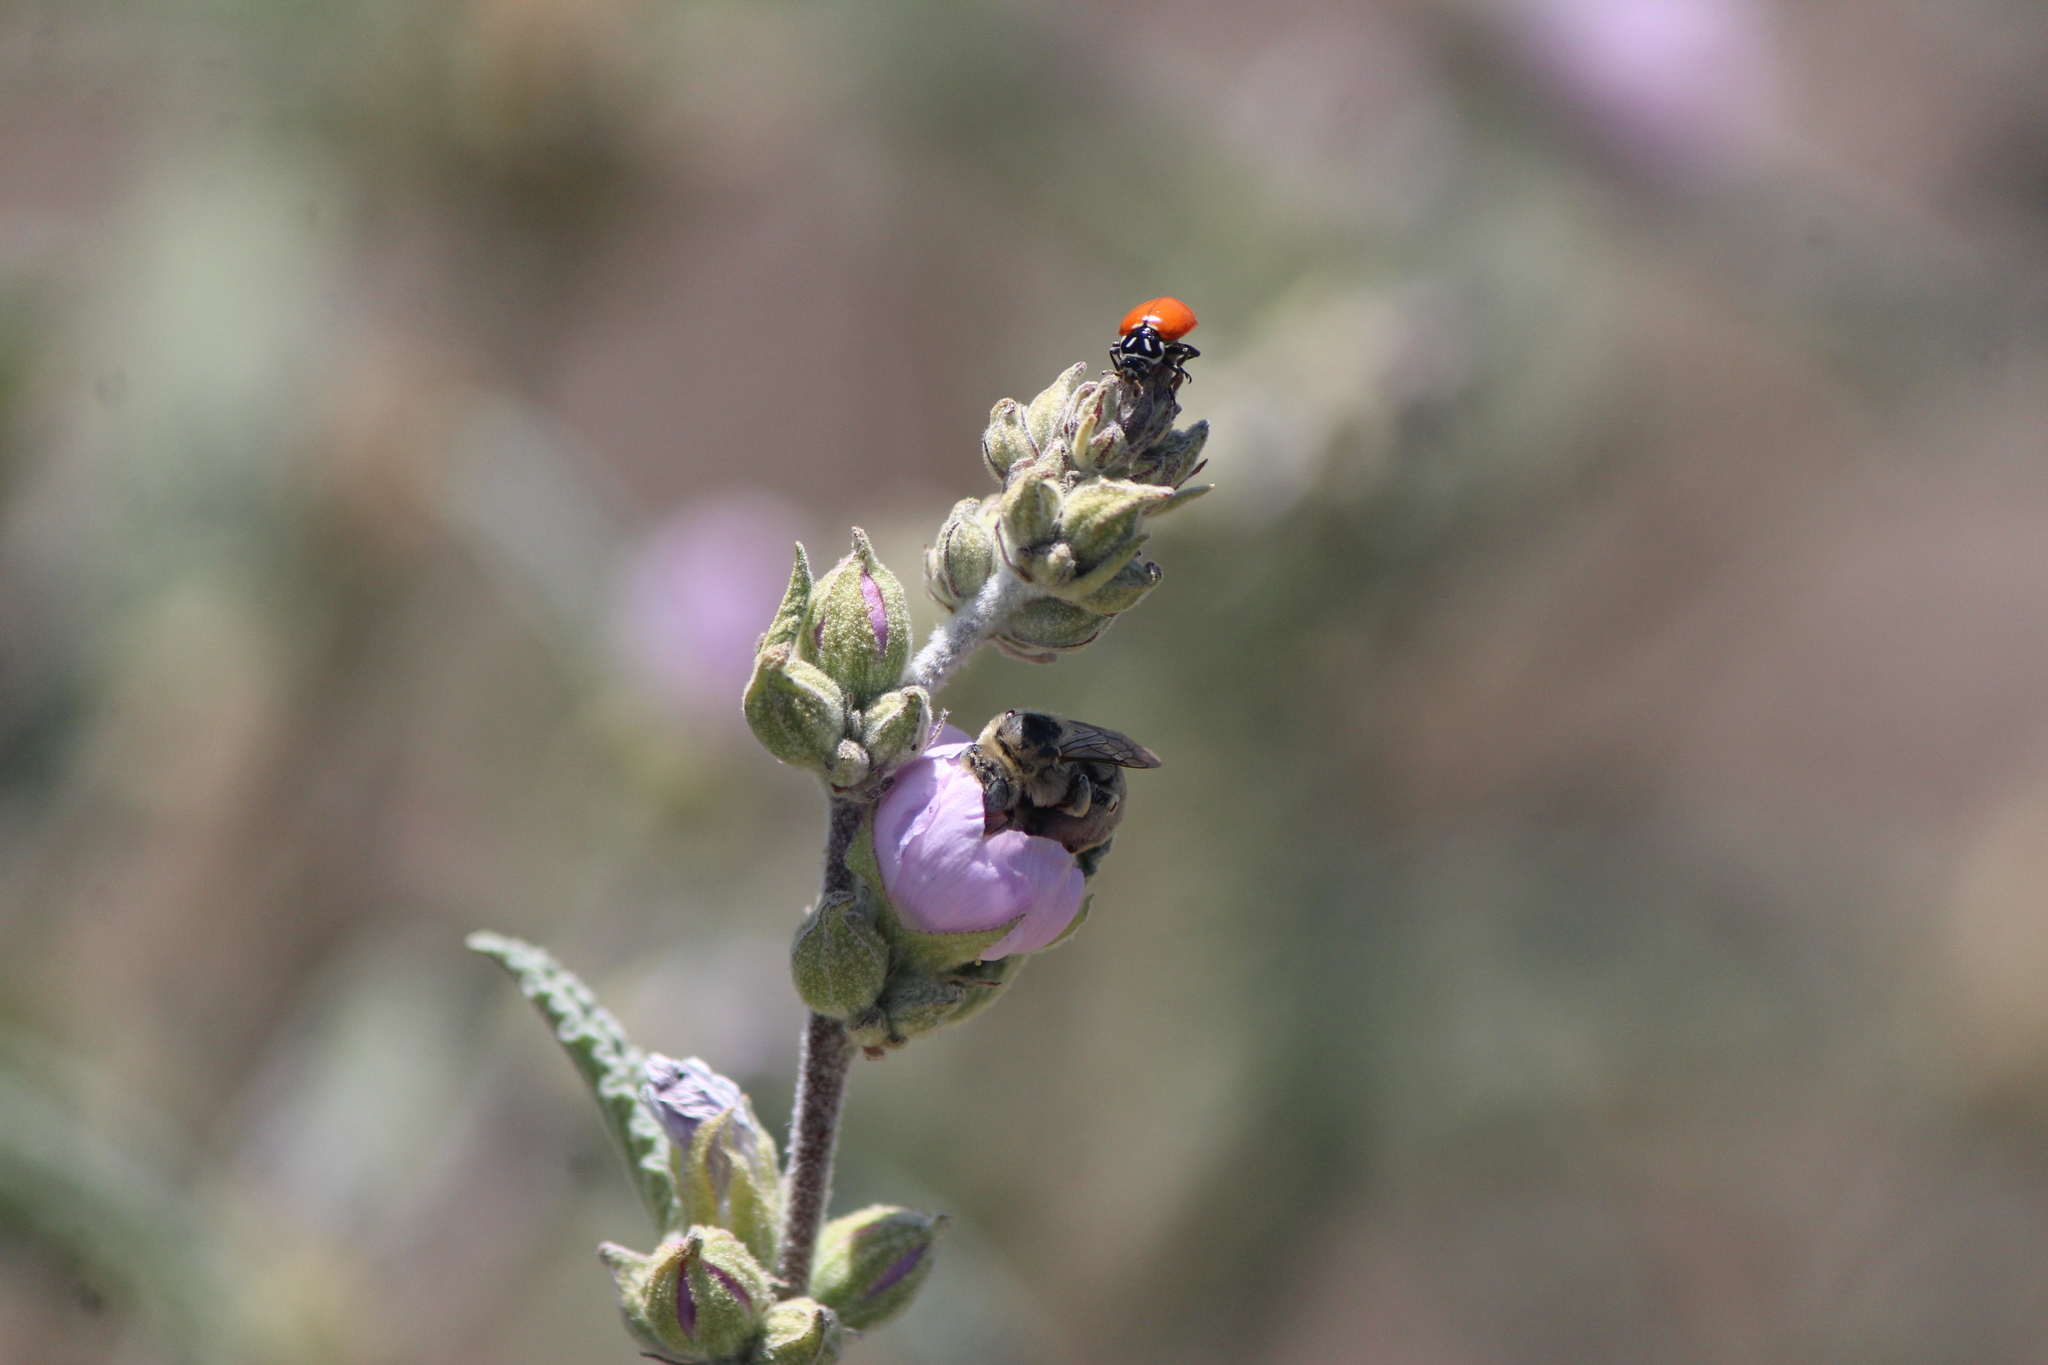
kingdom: Animalia
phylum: Arthropoda
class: Insecta
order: Hymenoptera
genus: Dasiapis
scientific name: Dasiapis
